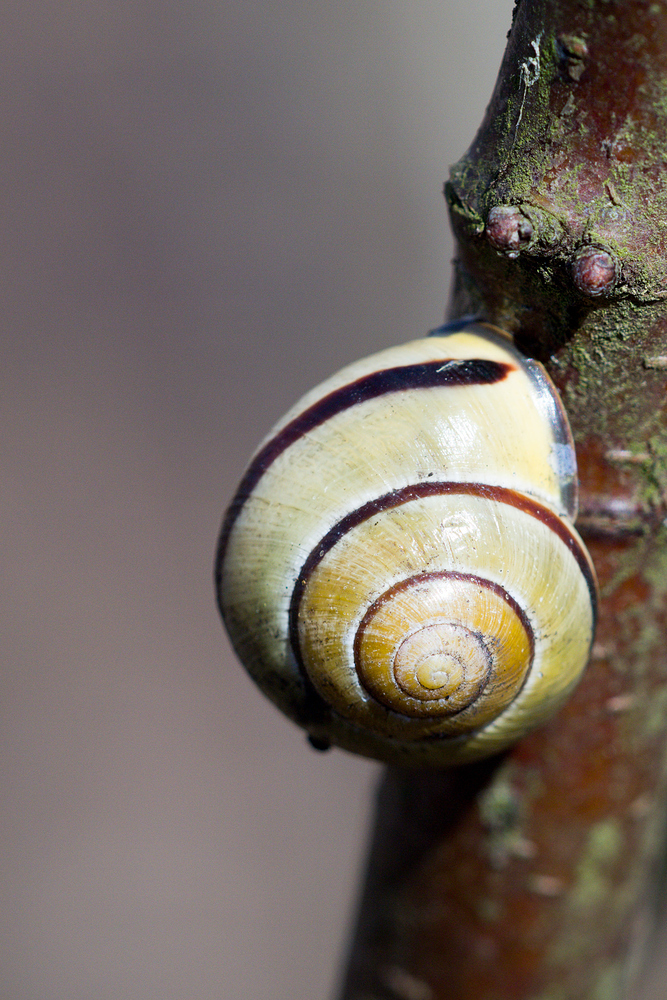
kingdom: Animalia
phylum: Mollusca
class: Gastropoda
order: Stylommatophora
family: Helicidae
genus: Cepaea
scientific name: Cepaea nemoralis
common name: Grovesnail
